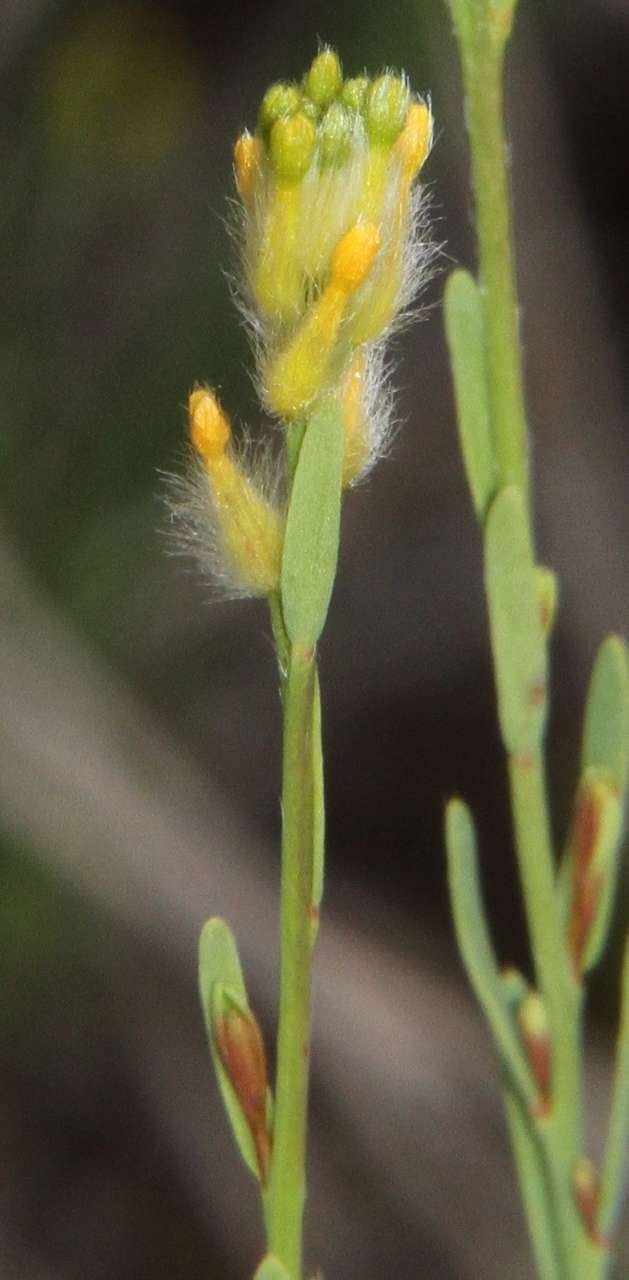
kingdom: Plantae
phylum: Tracheophyta
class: Magnoliopsida
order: Malvales
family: Thymelaeaceae
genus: Pimelea
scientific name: Pimelea trichostachya
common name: Poverty-bush
